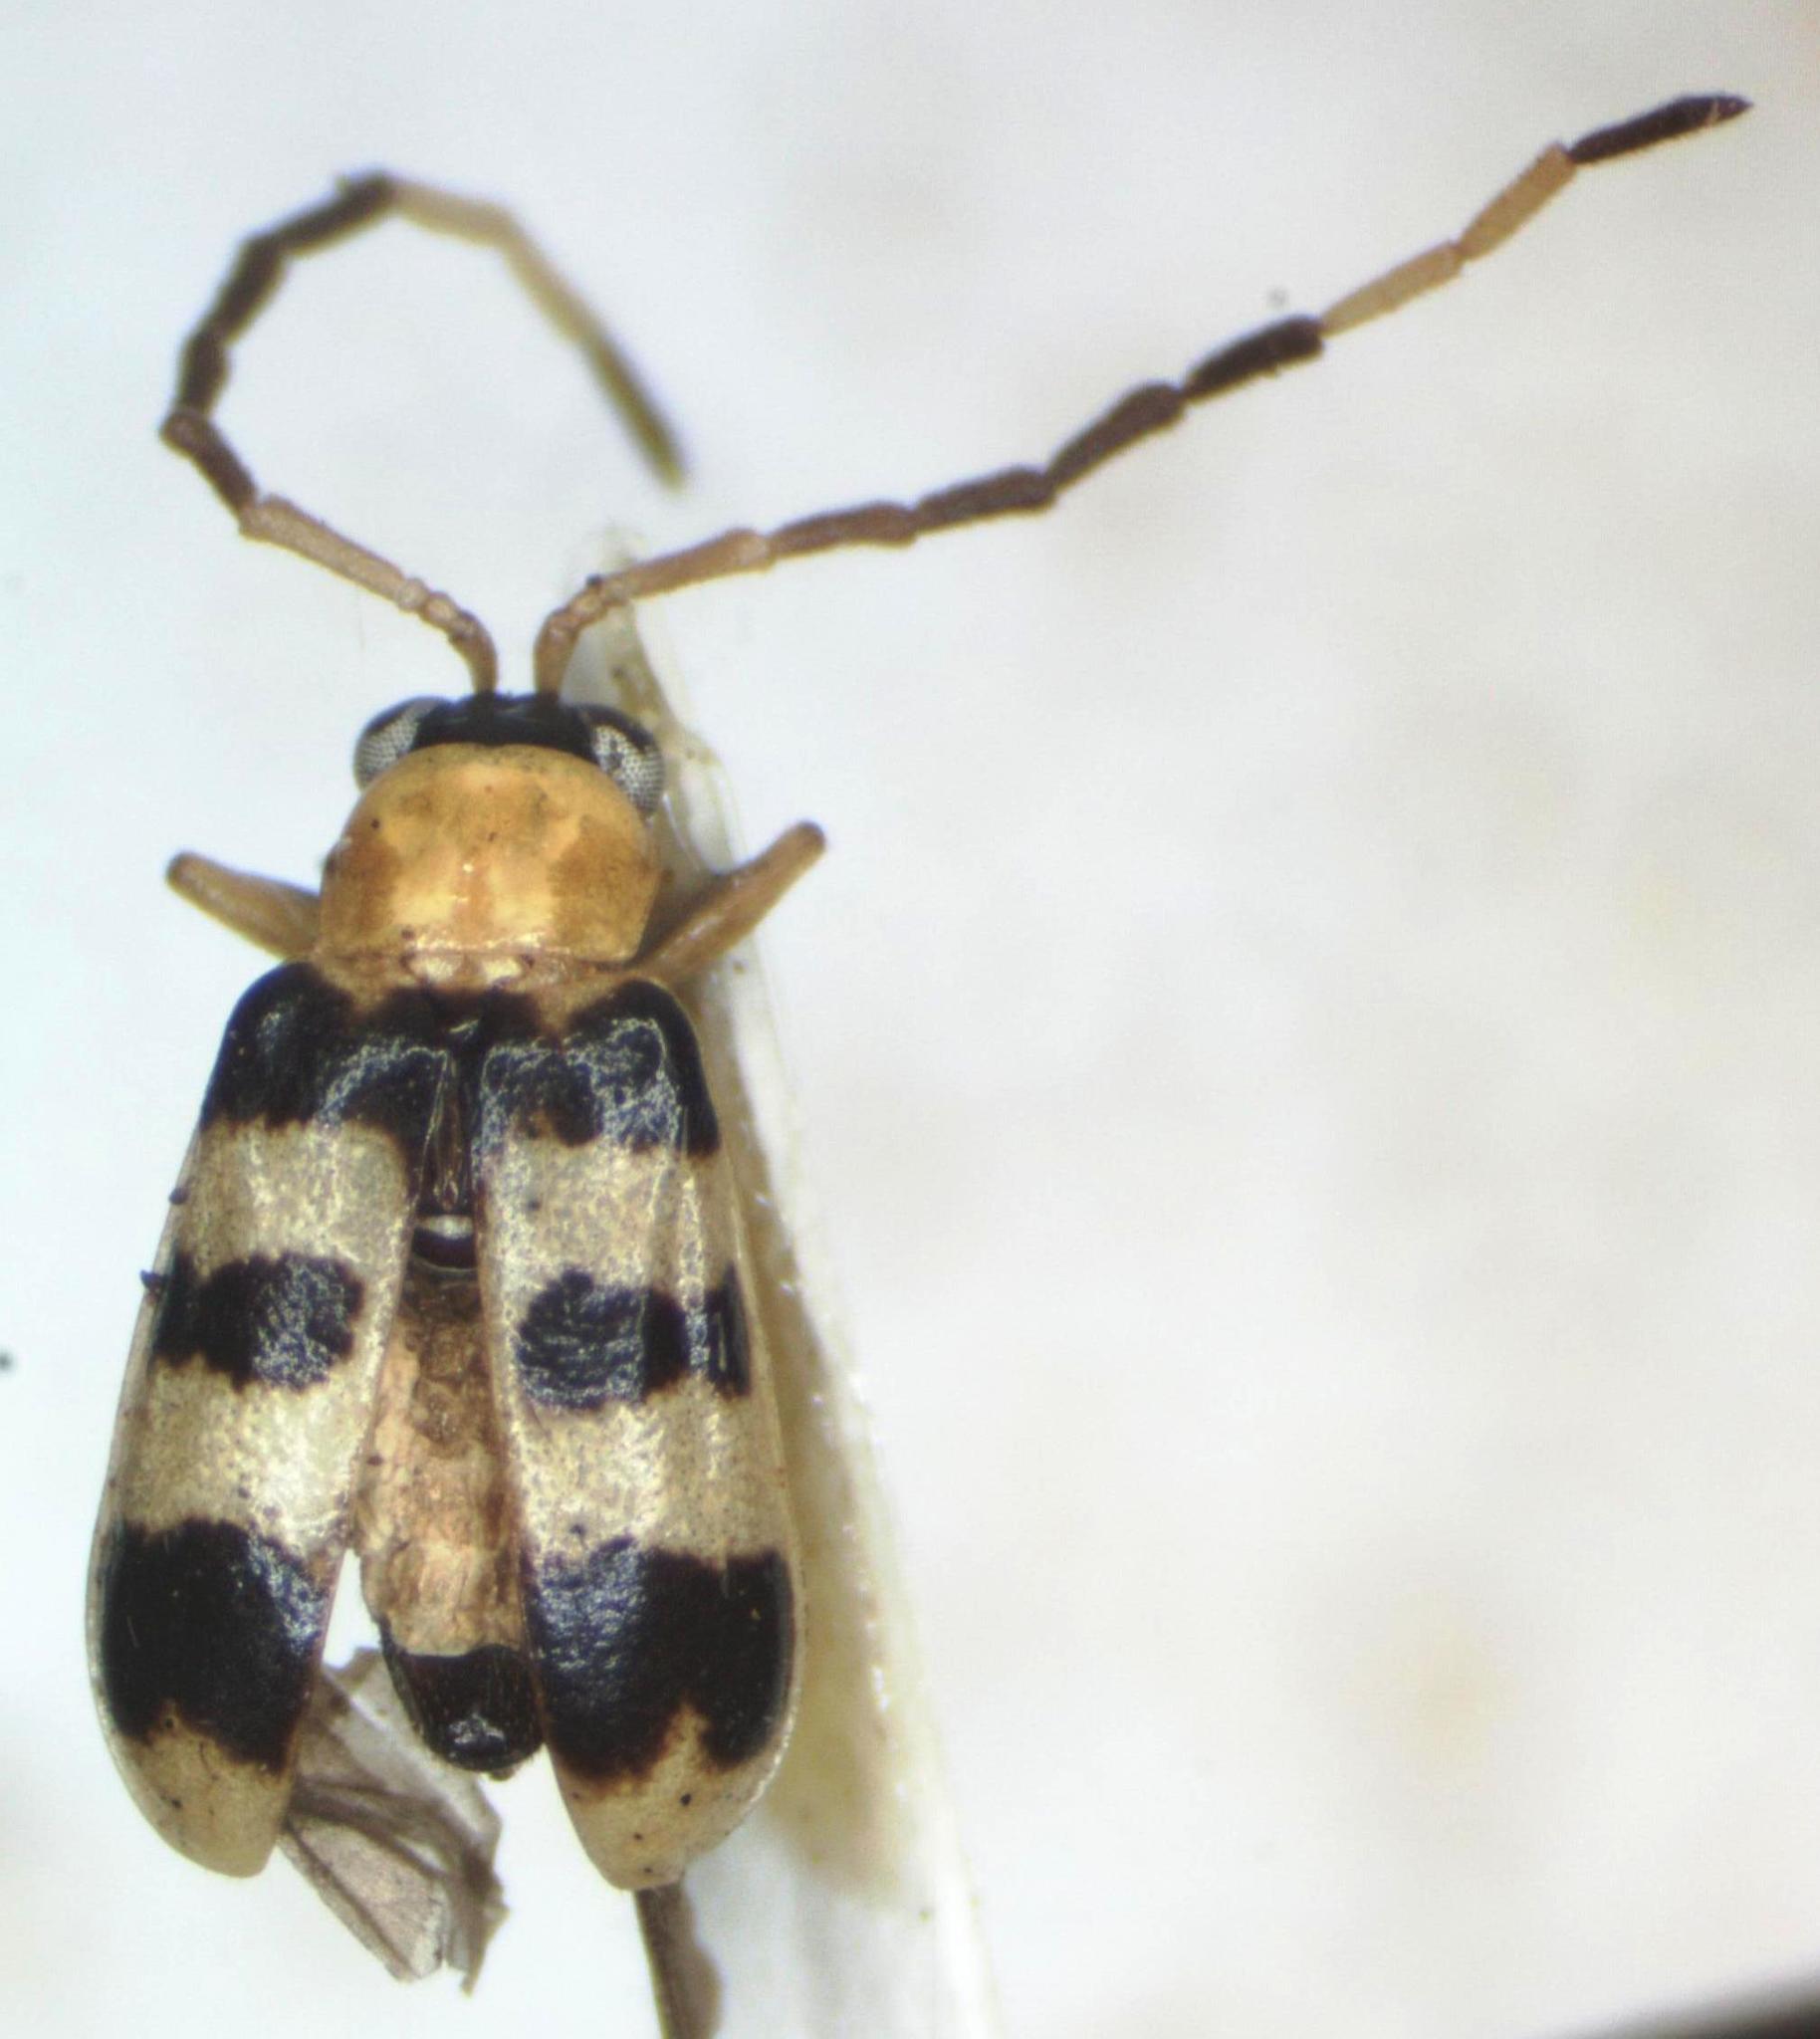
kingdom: Animalia
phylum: Arthropoda
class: Insecta
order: Coleoptera
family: Chrysomelidae
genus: Diabrotica
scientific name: Diabrotica
